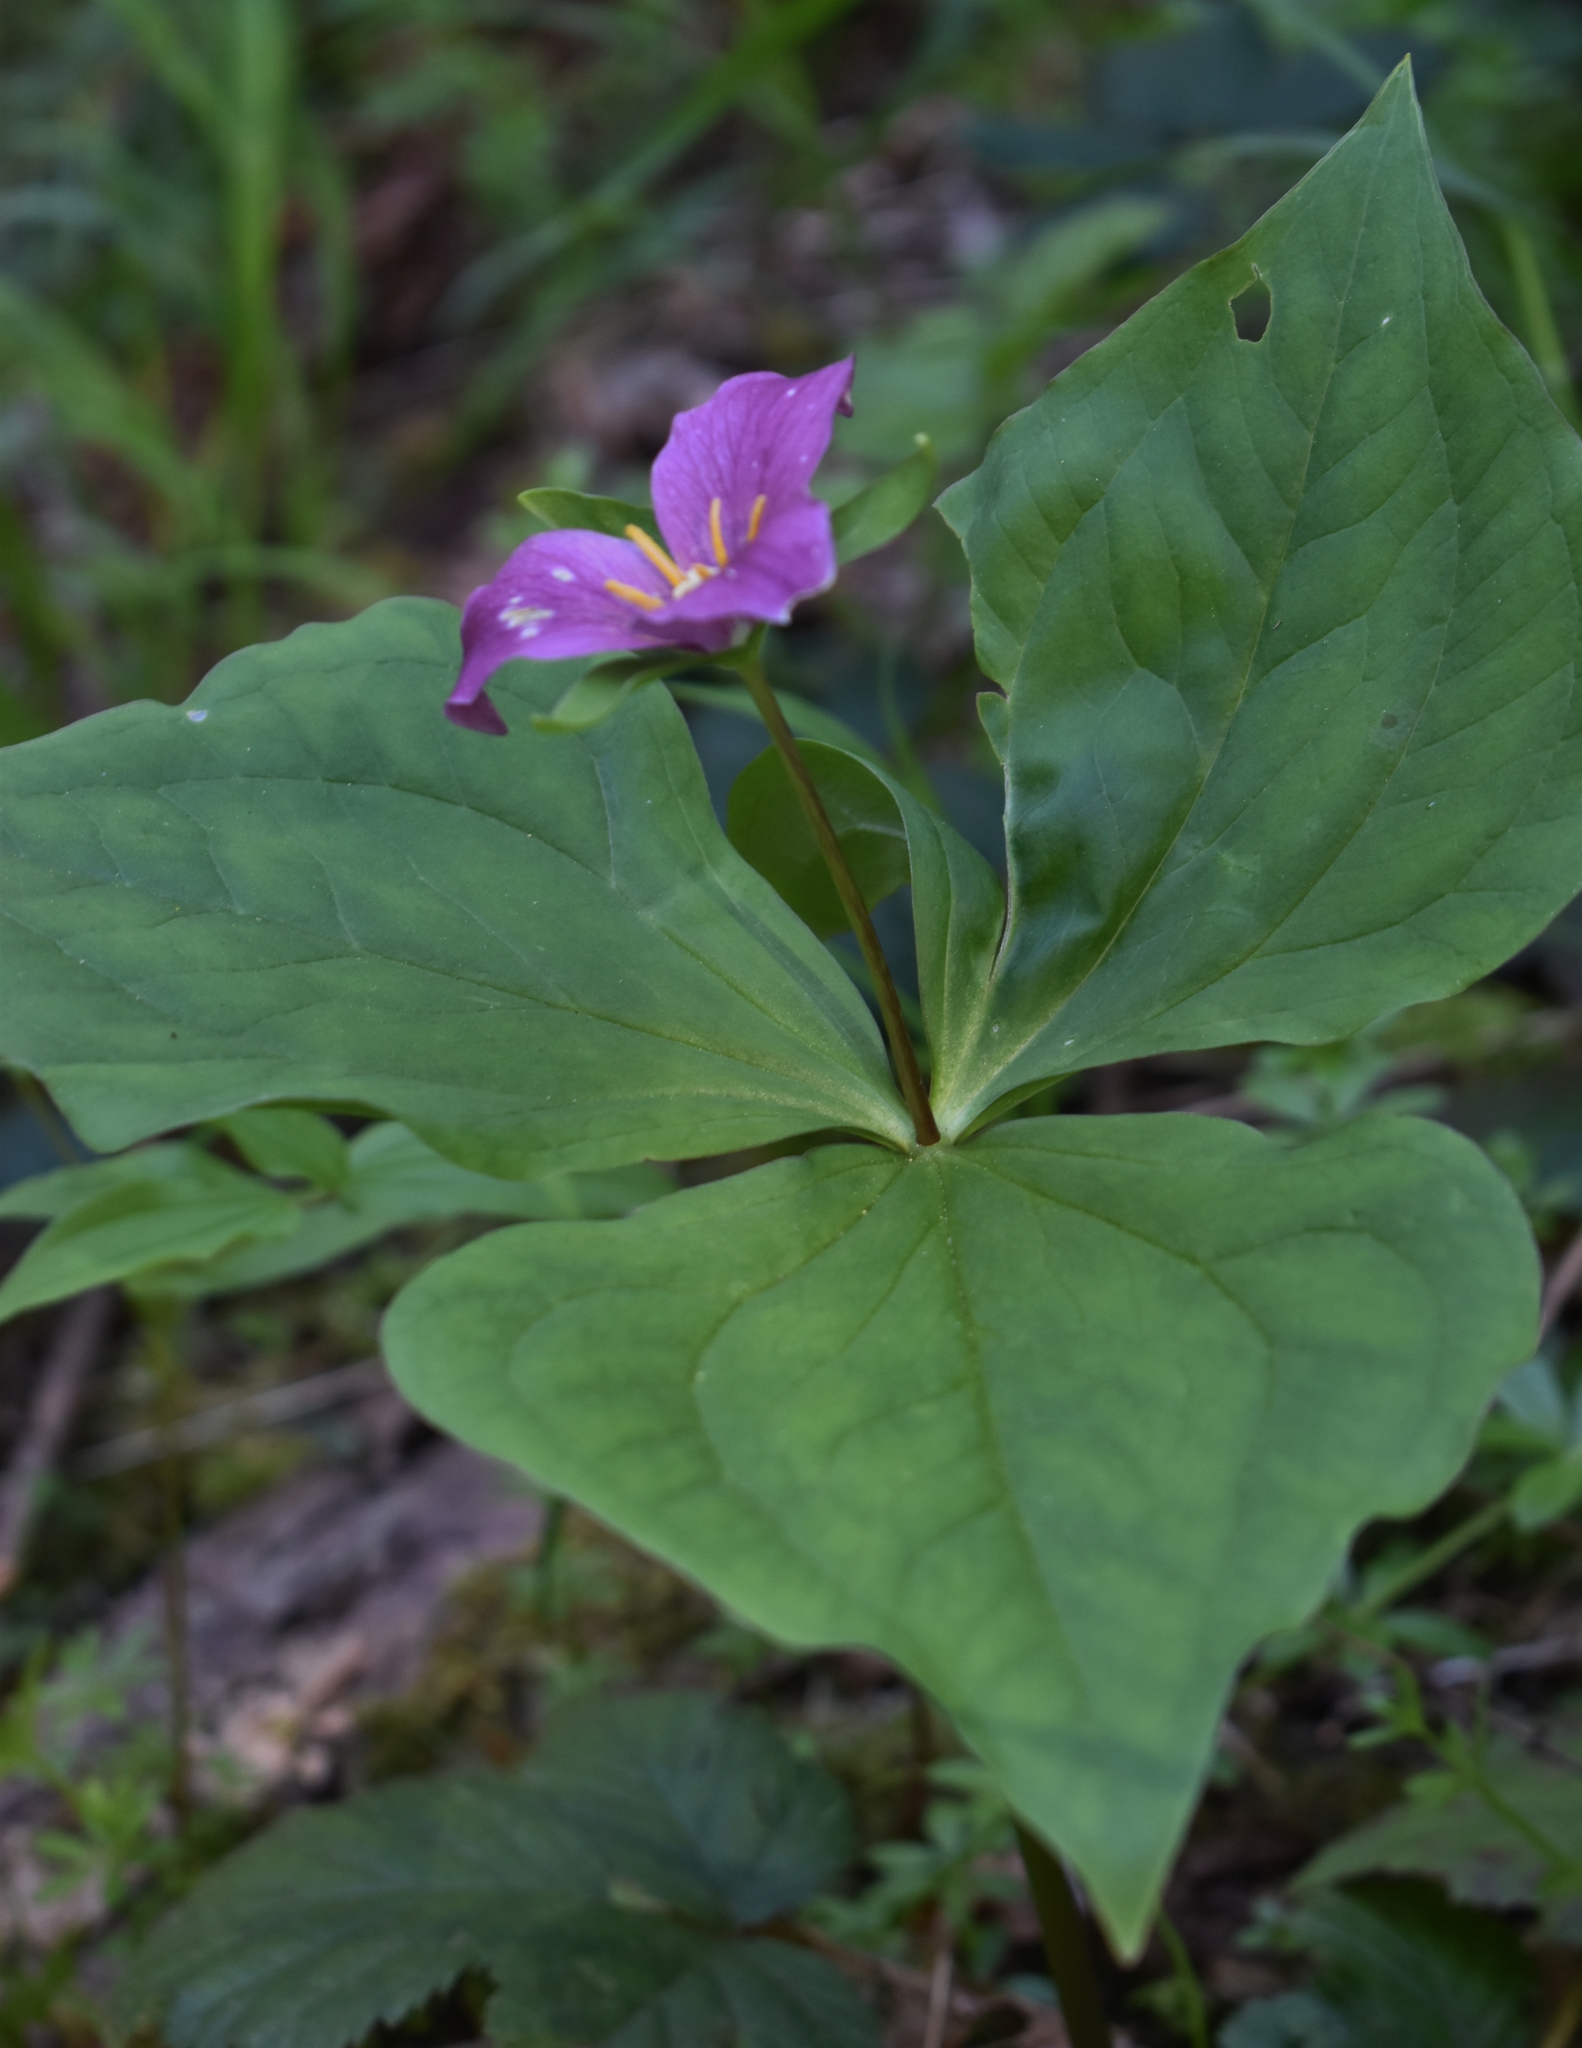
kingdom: Plantae
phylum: Tracheophyta
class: Liliopsida
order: Liliales
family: Melanthiaceae
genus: Trillium
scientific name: Trillium ovatum
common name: Pacific trillium
